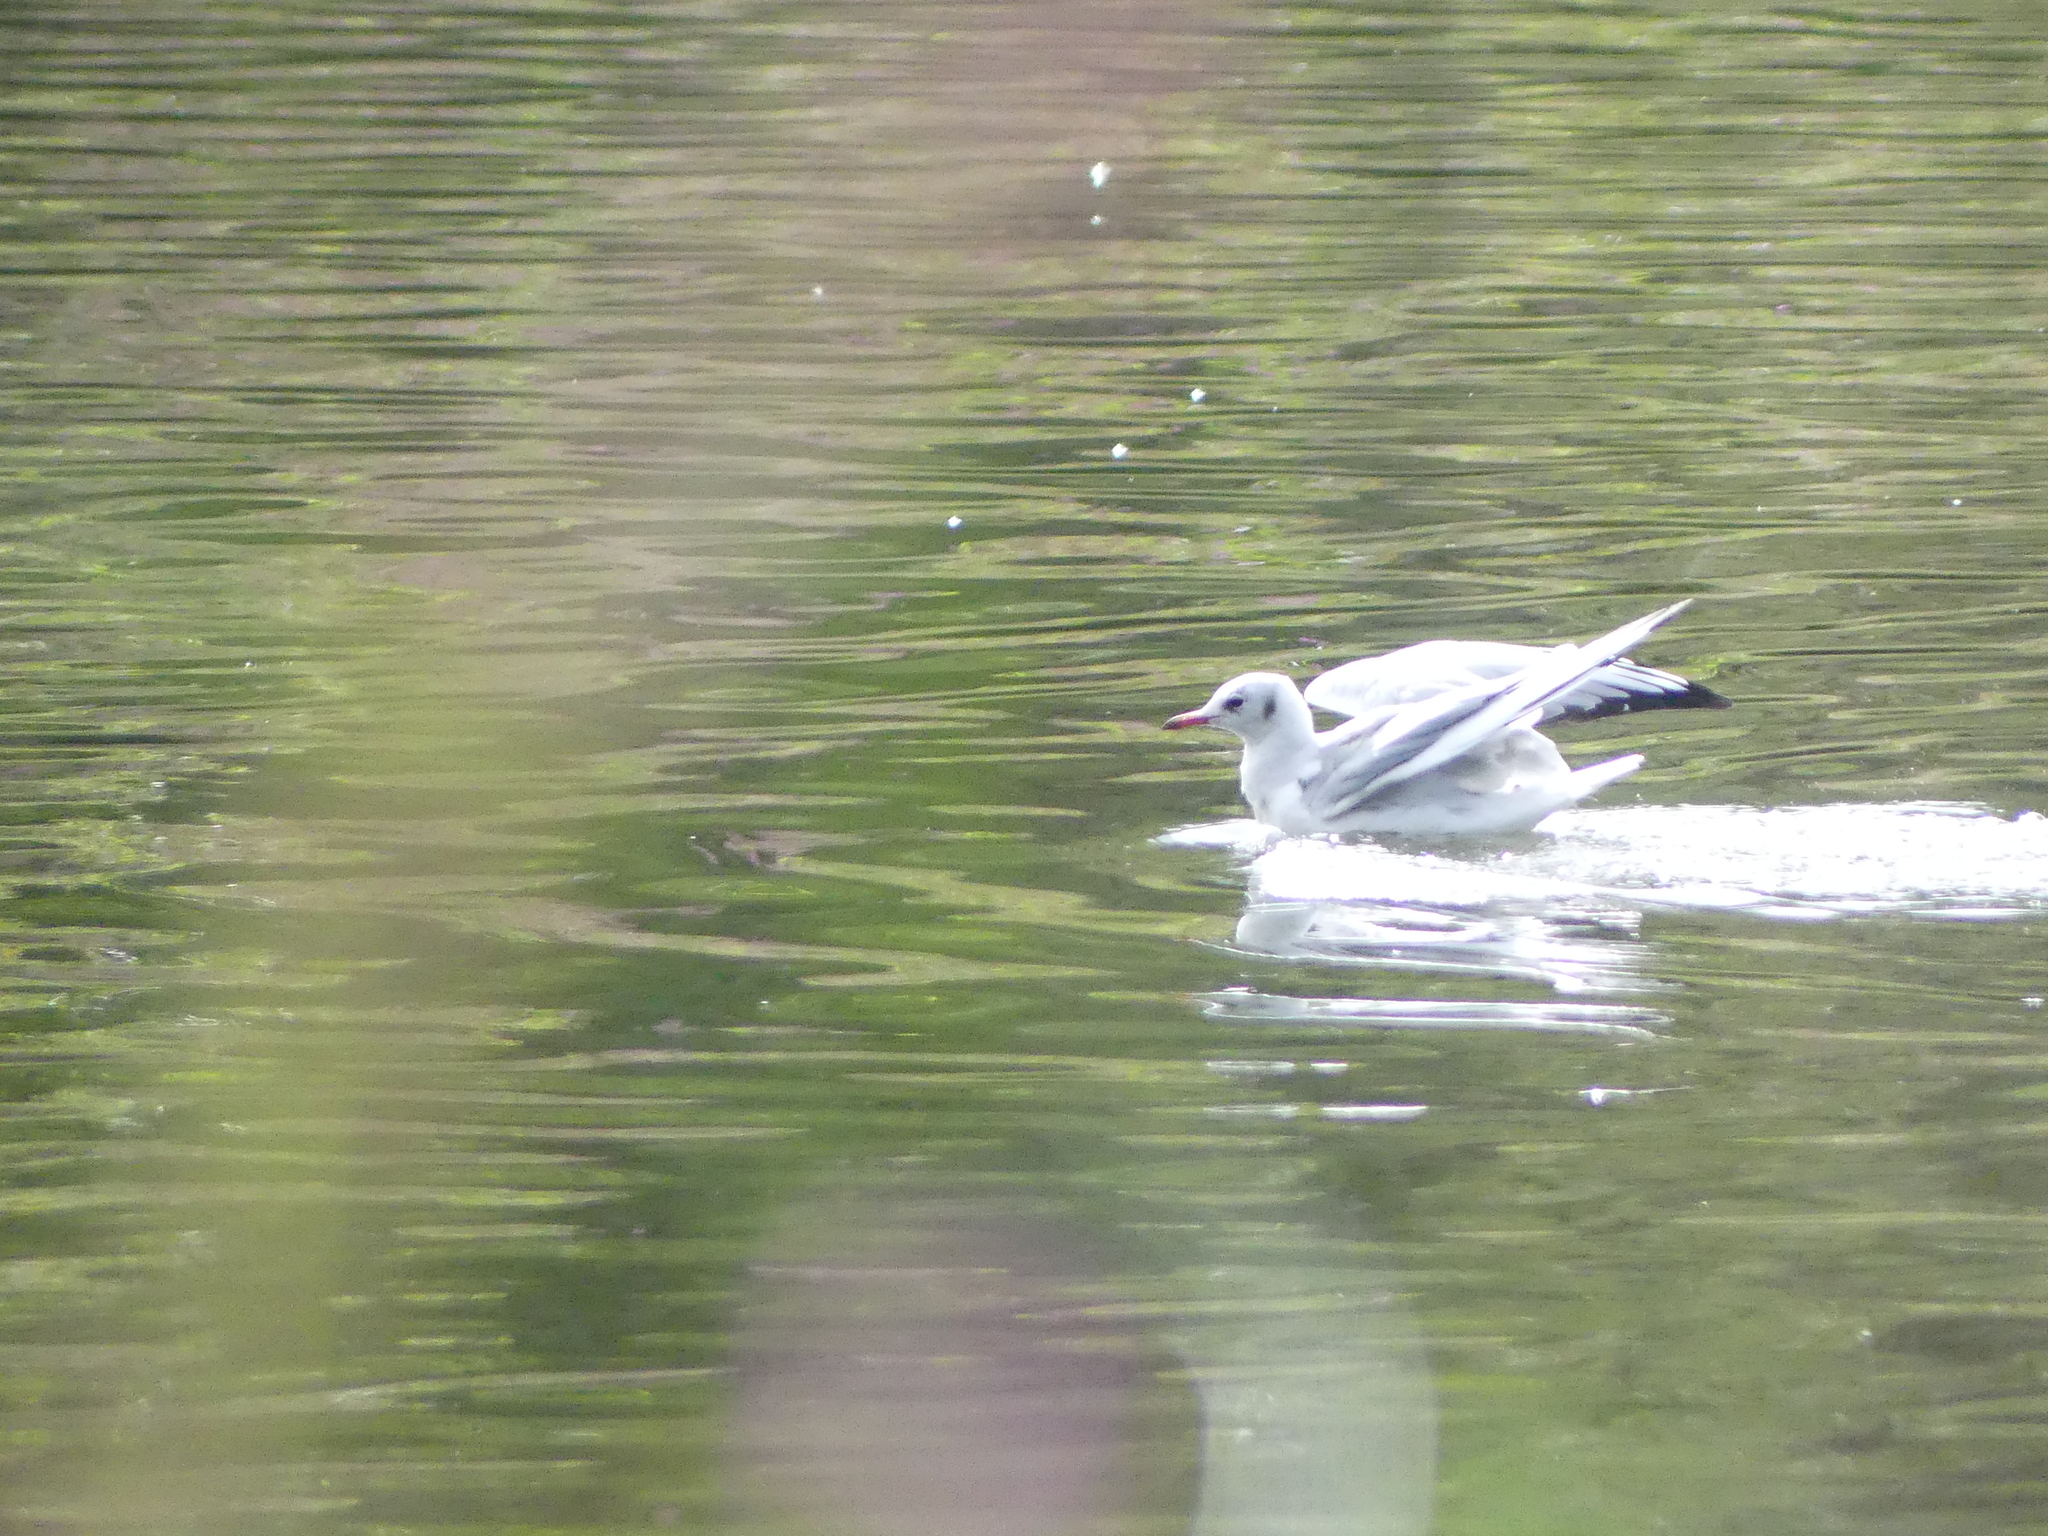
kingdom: Animalia
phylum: Chordata
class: Aves
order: Charadriiformes
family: Laridae
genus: Chroicocephalus
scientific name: Chroicocephalus ridibundus
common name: Black-headed gull
